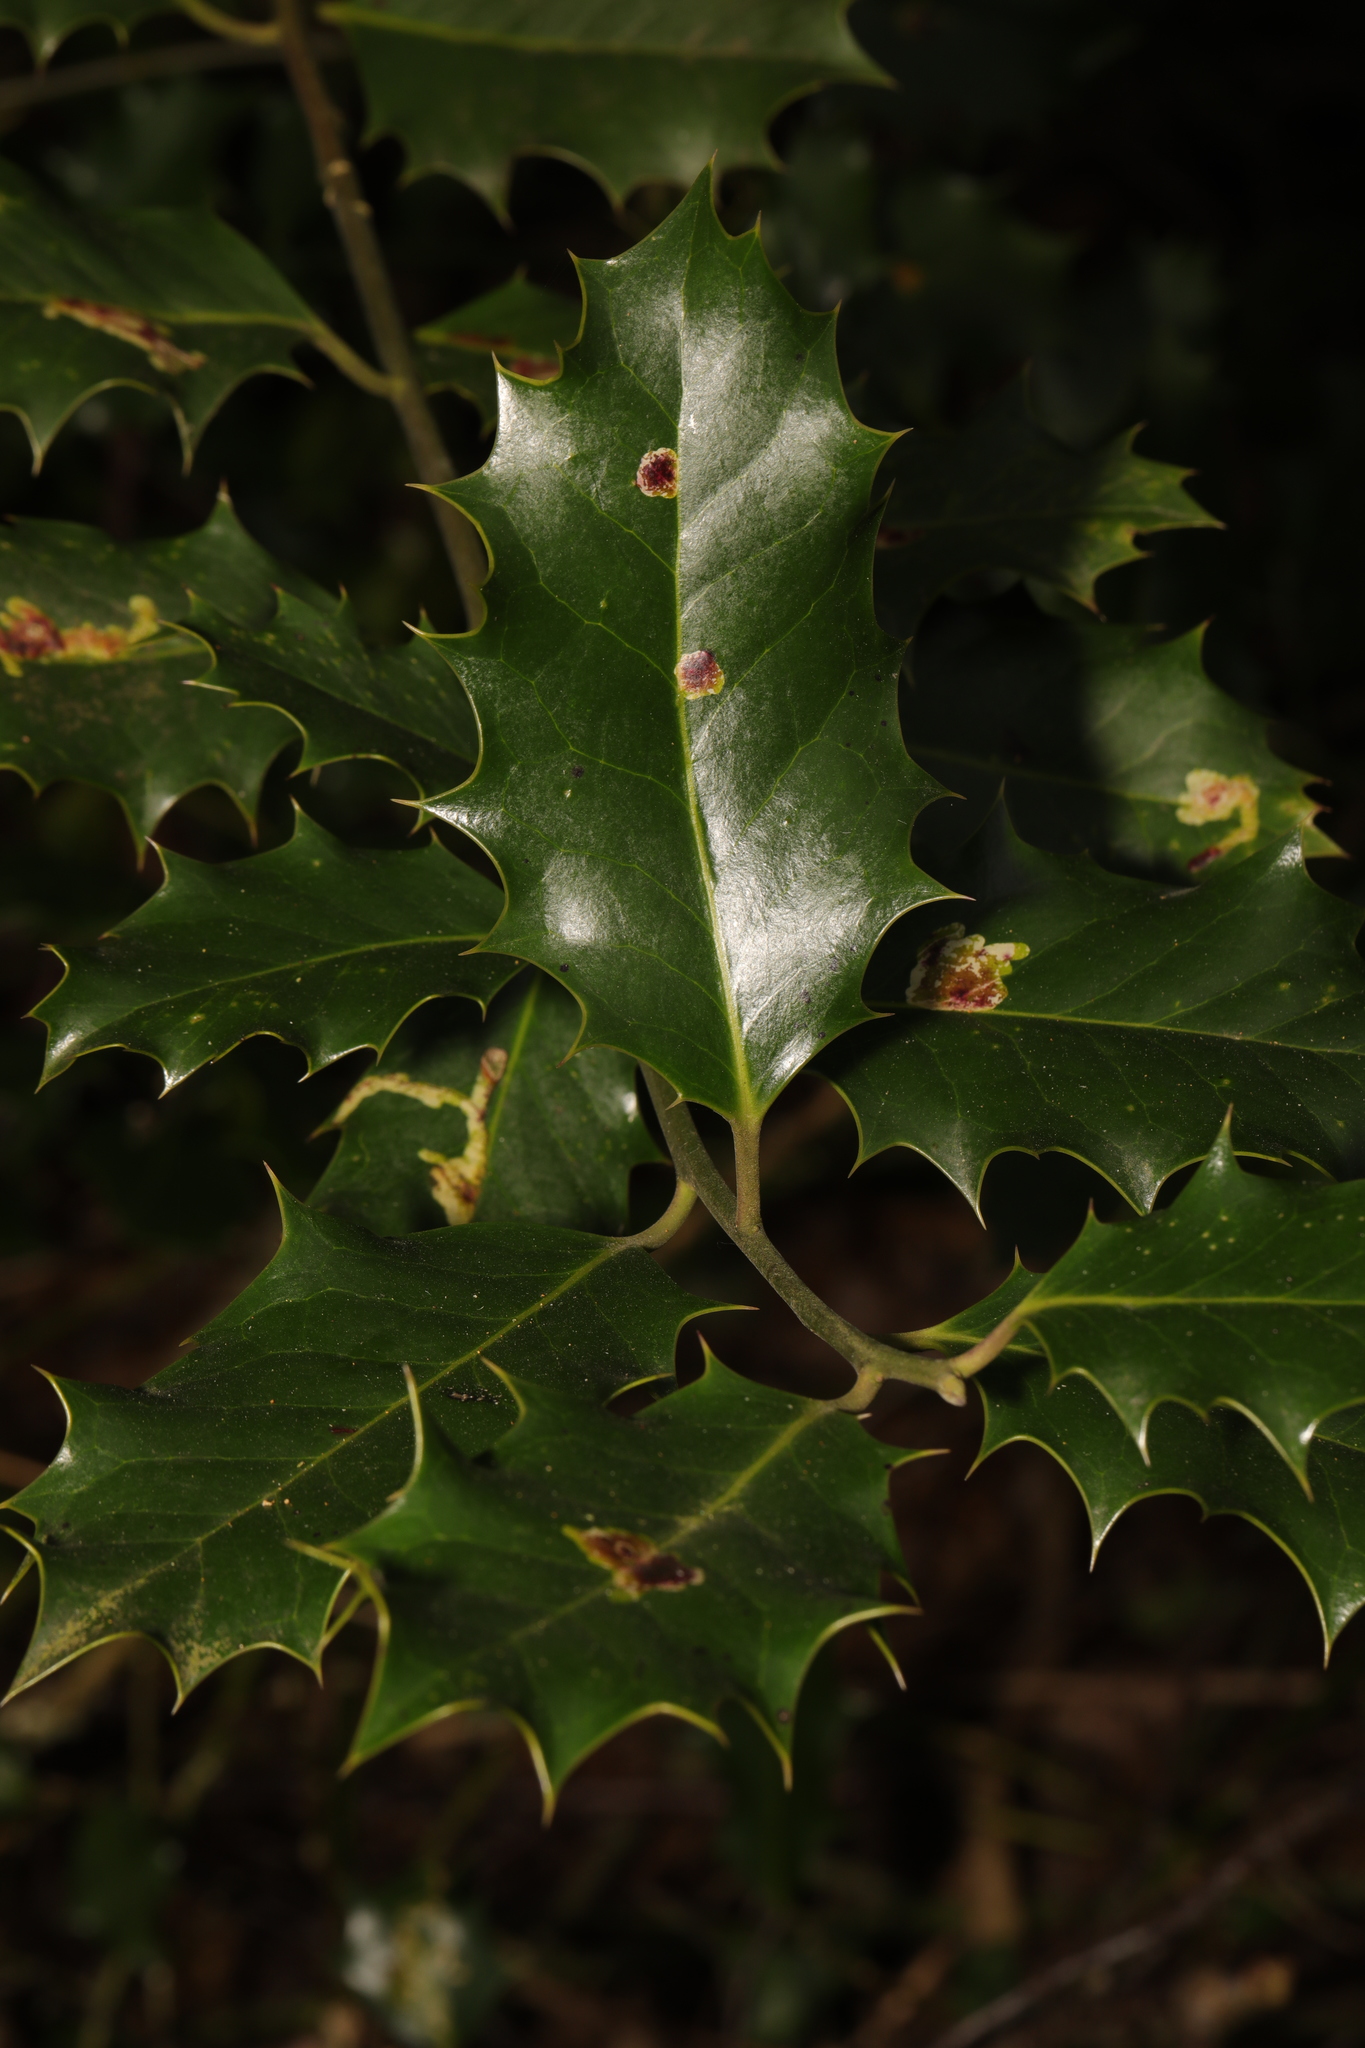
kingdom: Plantae
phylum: Tracheophyta
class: Magnoliopsida
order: Aquifoliales
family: Aquifoliaceae
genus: Ilex
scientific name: Ilex aquifolium
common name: English holly
